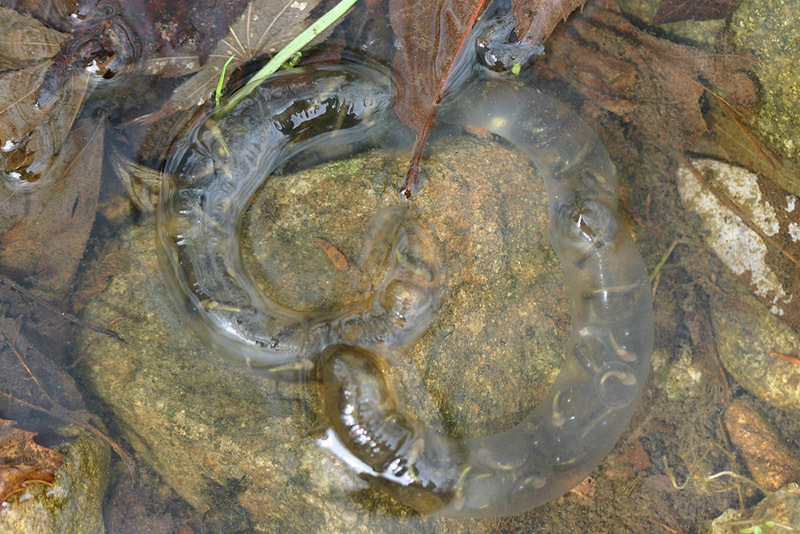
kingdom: Animalia
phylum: Chordata
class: Amphibia
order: Caudata
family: Hynobiidae
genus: Hynobius
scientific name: Hynobius leechii
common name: Gensan salamander
